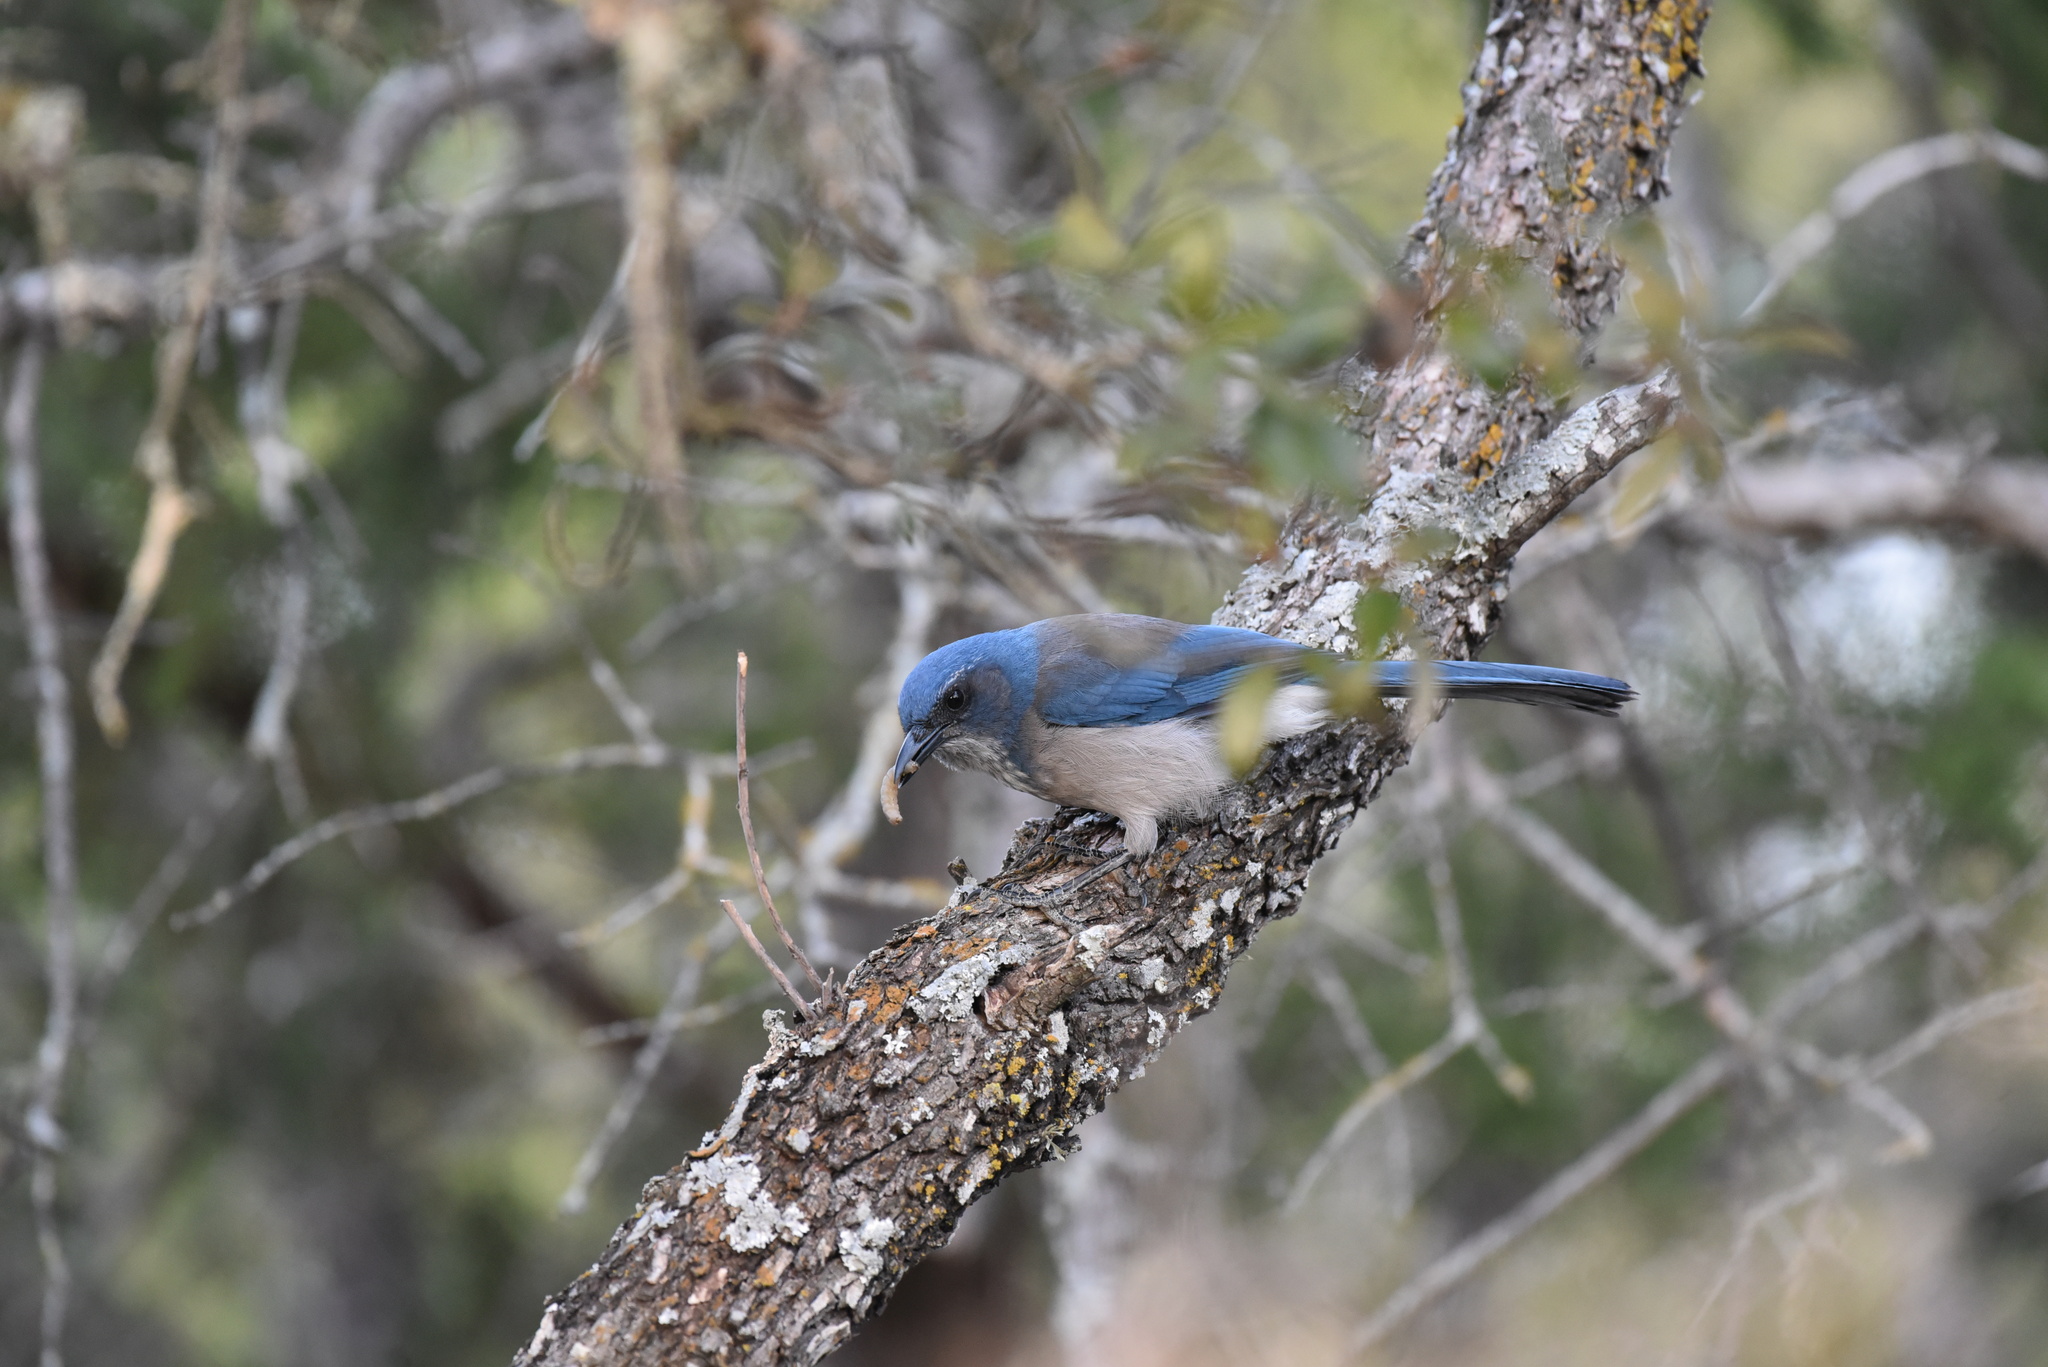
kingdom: Animalia
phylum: Chordata
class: Aves
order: Passeriformes
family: Corvidae
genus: Aphelocoma
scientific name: Aphelocoma woodhouseii
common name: Woodhouse's scrub-jay
